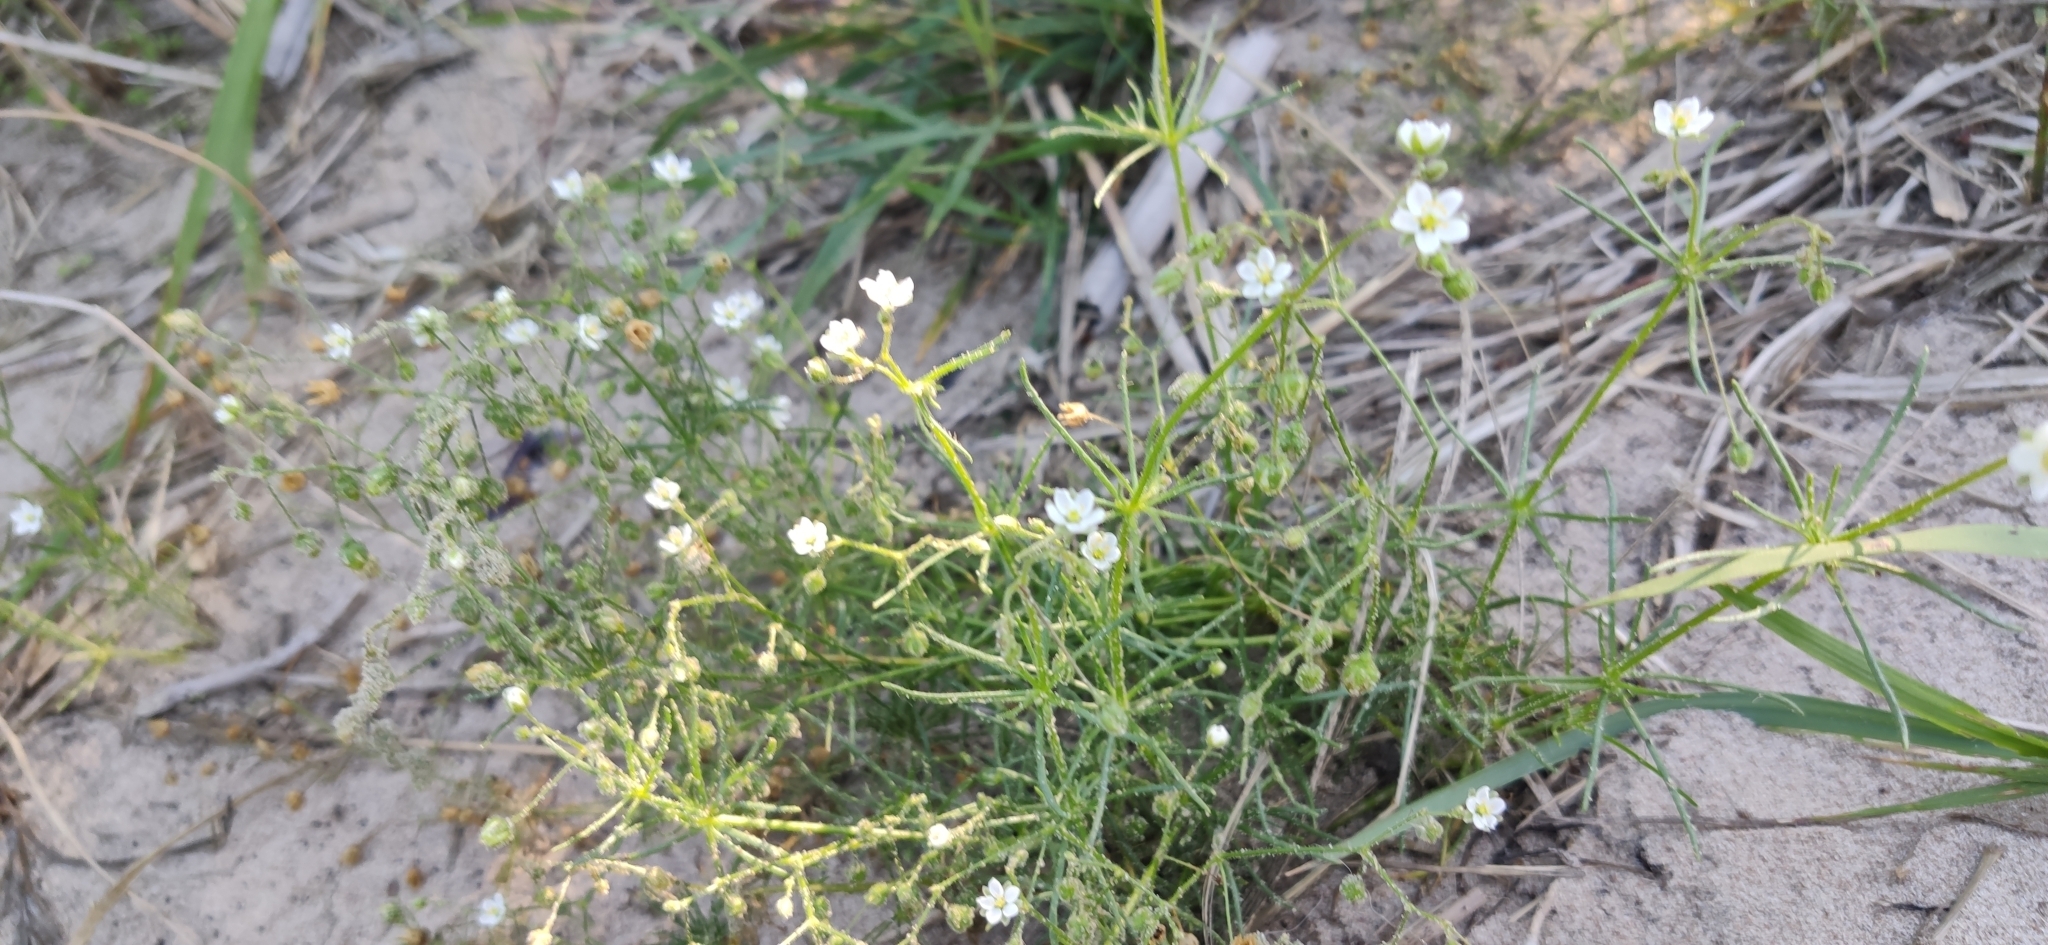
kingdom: Plantae
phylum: Tracheophyta
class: Magnoliopsida
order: Caryophyllales
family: Caryophyllaceae
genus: Spergula
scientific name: Spergula arvensis
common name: Corn spurrey
